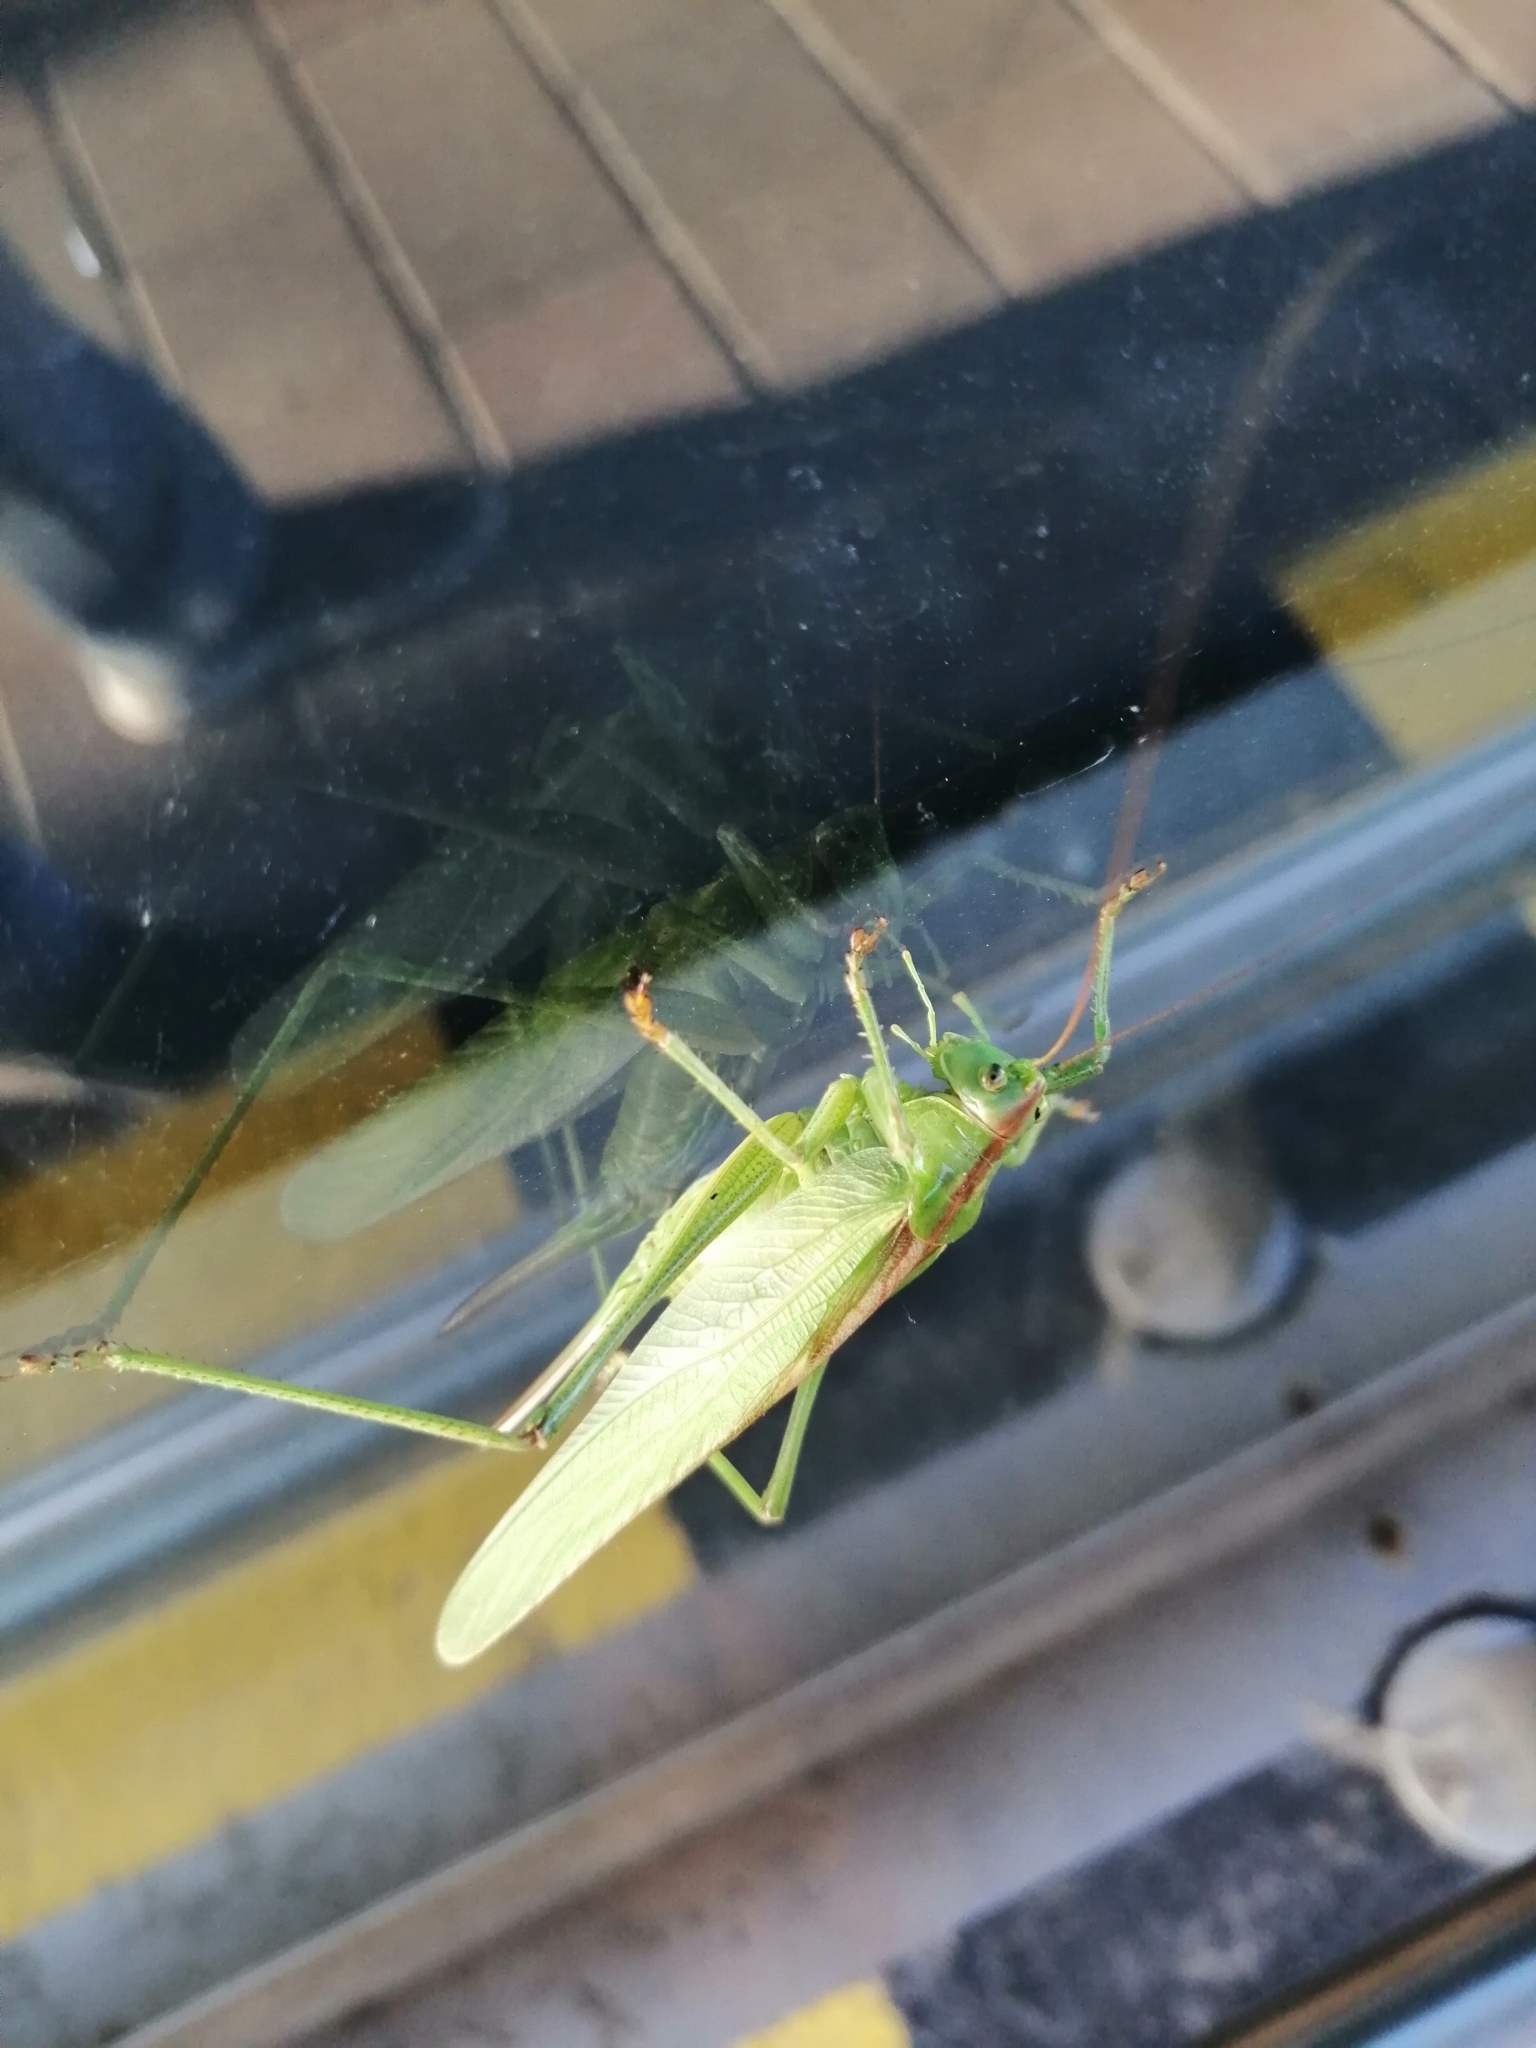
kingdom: Animalia
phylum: Arthropoda
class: Insecta
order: Orthoptera
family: Tettigoniidae
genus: Tettigonia
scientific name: Tettigonia viridissima
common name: Great green bush-cricket
